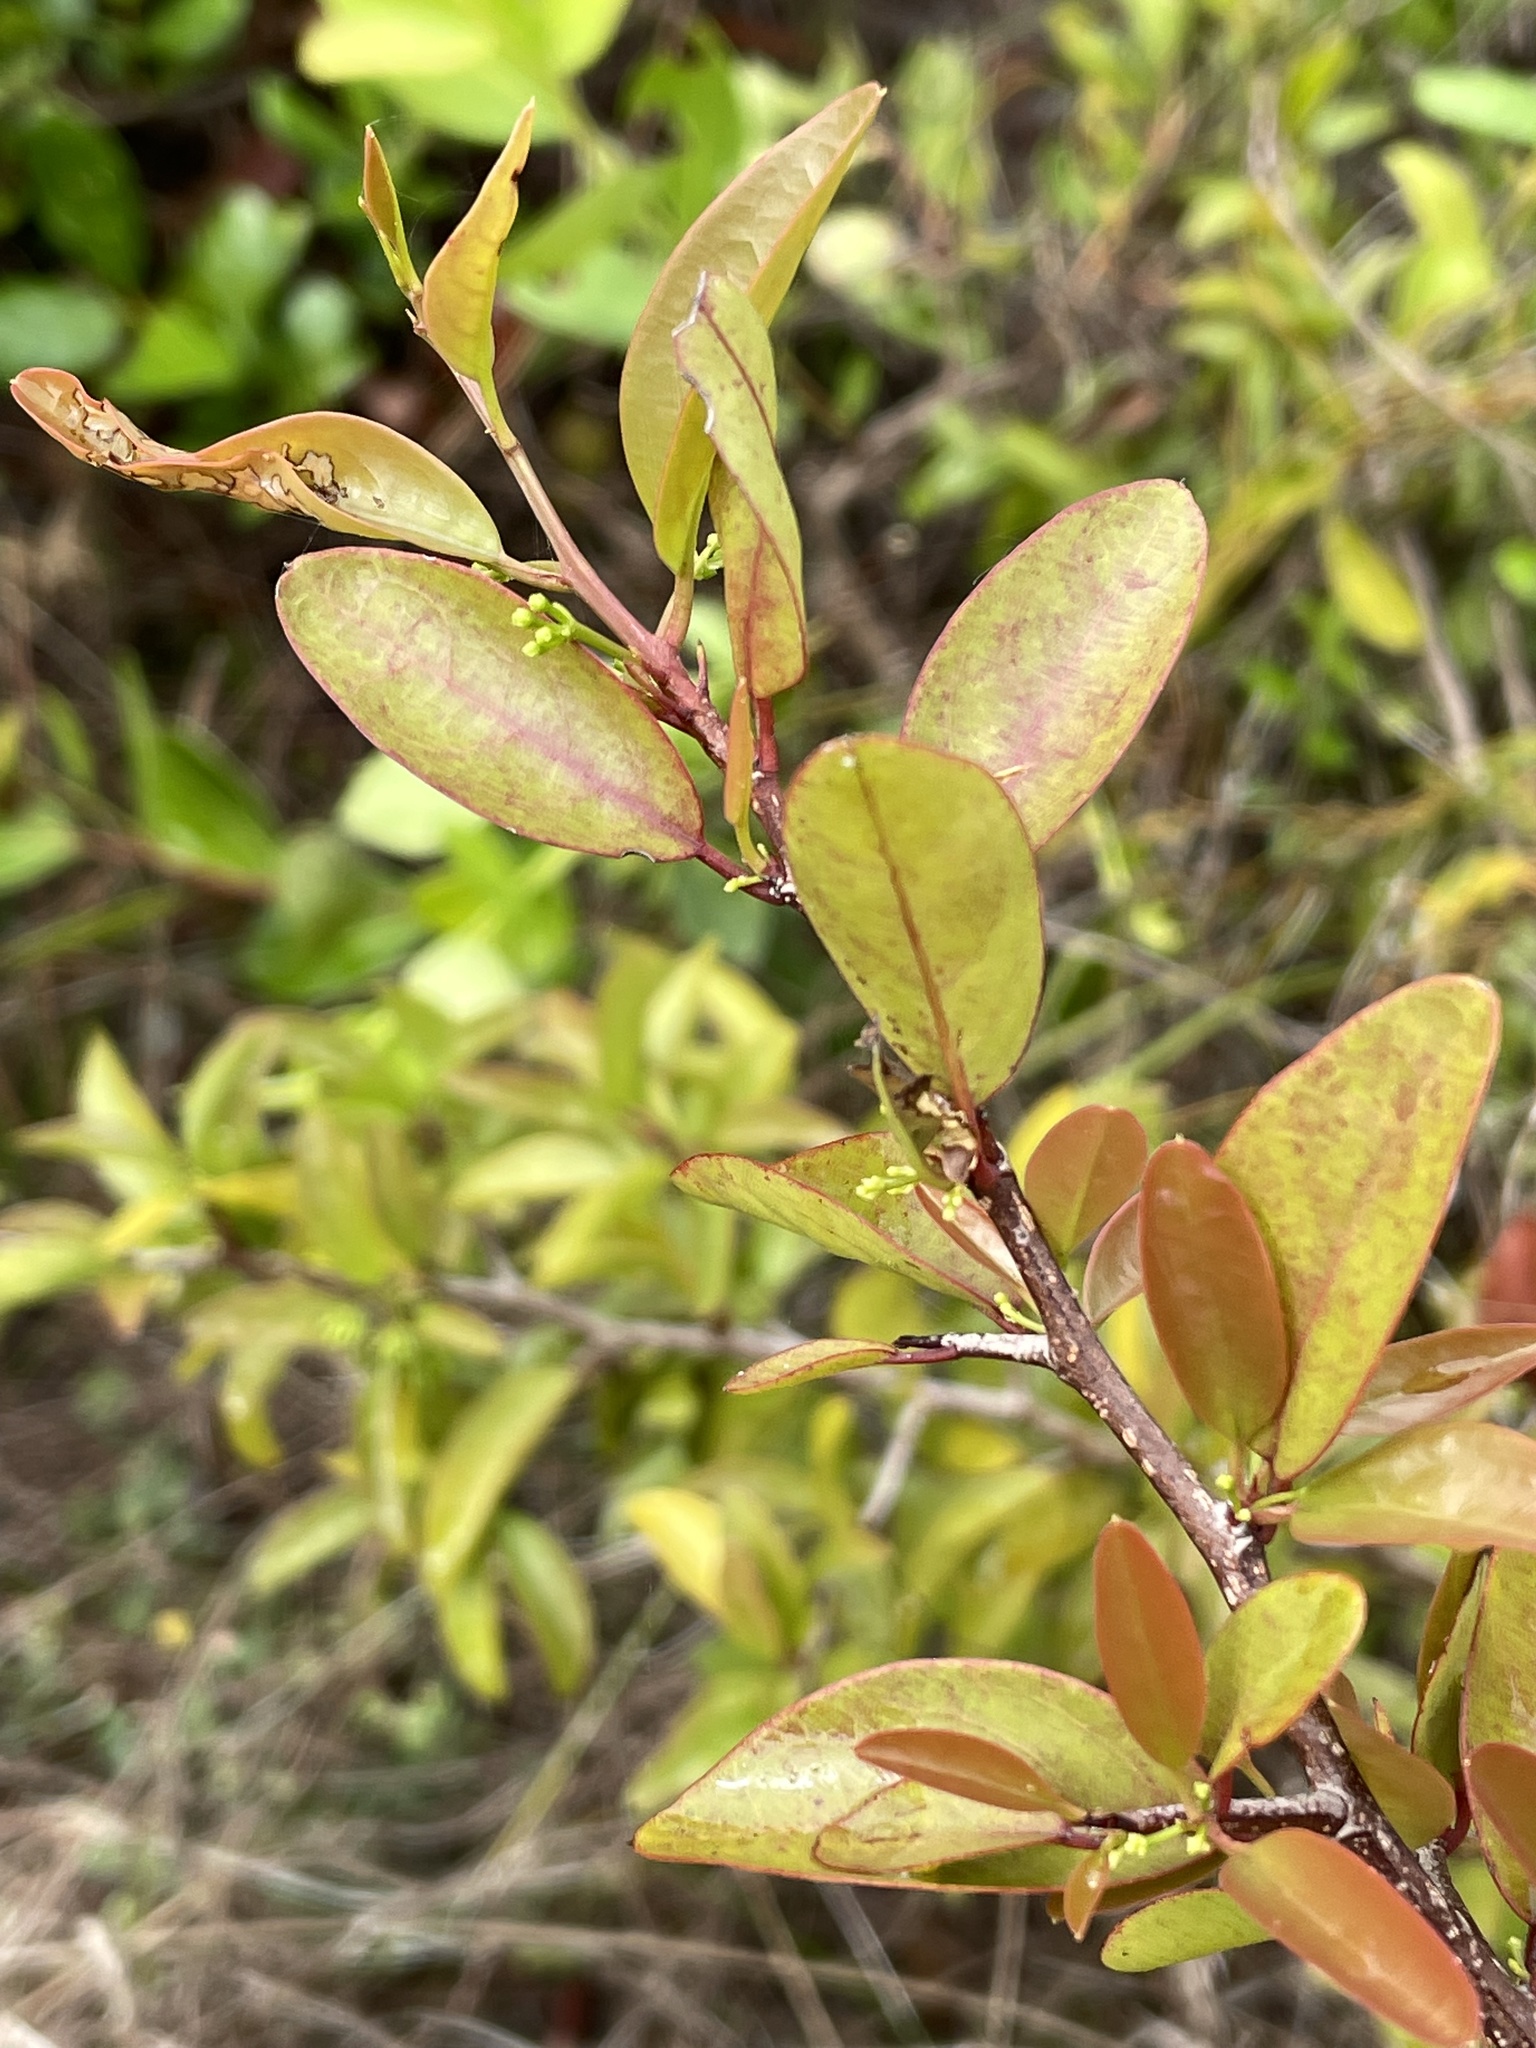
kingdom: Plantae
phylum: Tracheophyta
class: Magnoliopsida
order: Santalales
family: Ximeniaceae
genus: Ximenia
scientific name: Ximenia americana
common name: Tallowwood
